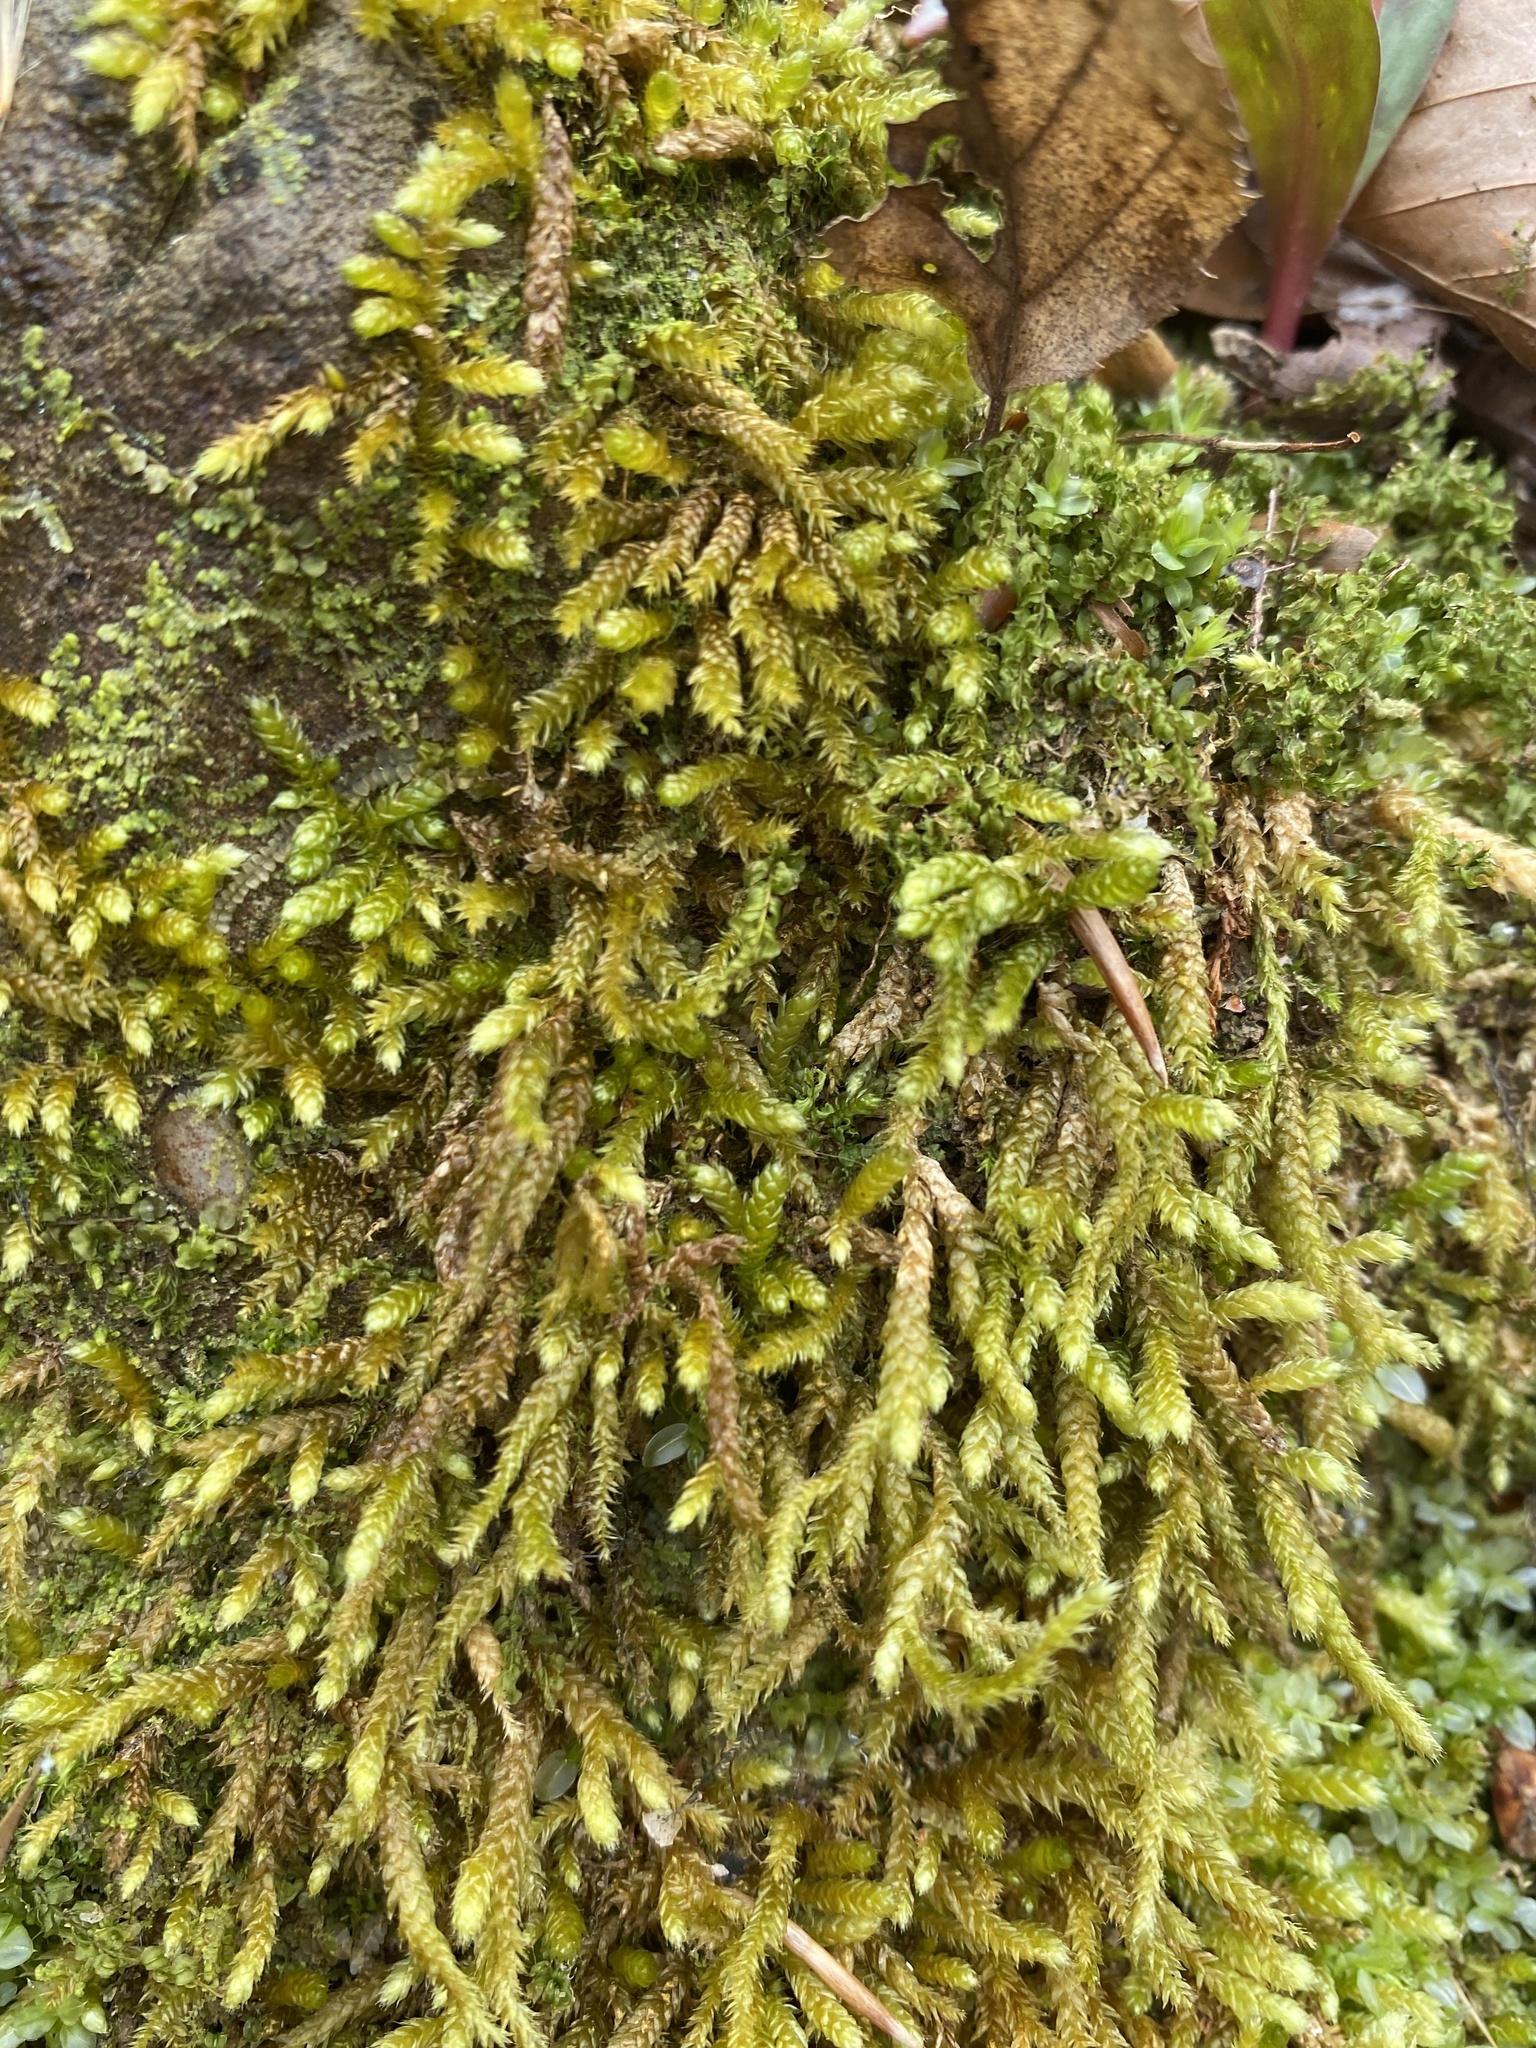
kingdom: Plantae
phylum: Bryophyta
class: Bryopsida
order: Hypnales
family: Brachytheciaceae
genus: Bryoandersonia
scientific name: Bryoandersonia illecebra
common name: Spoon-leaved moss
